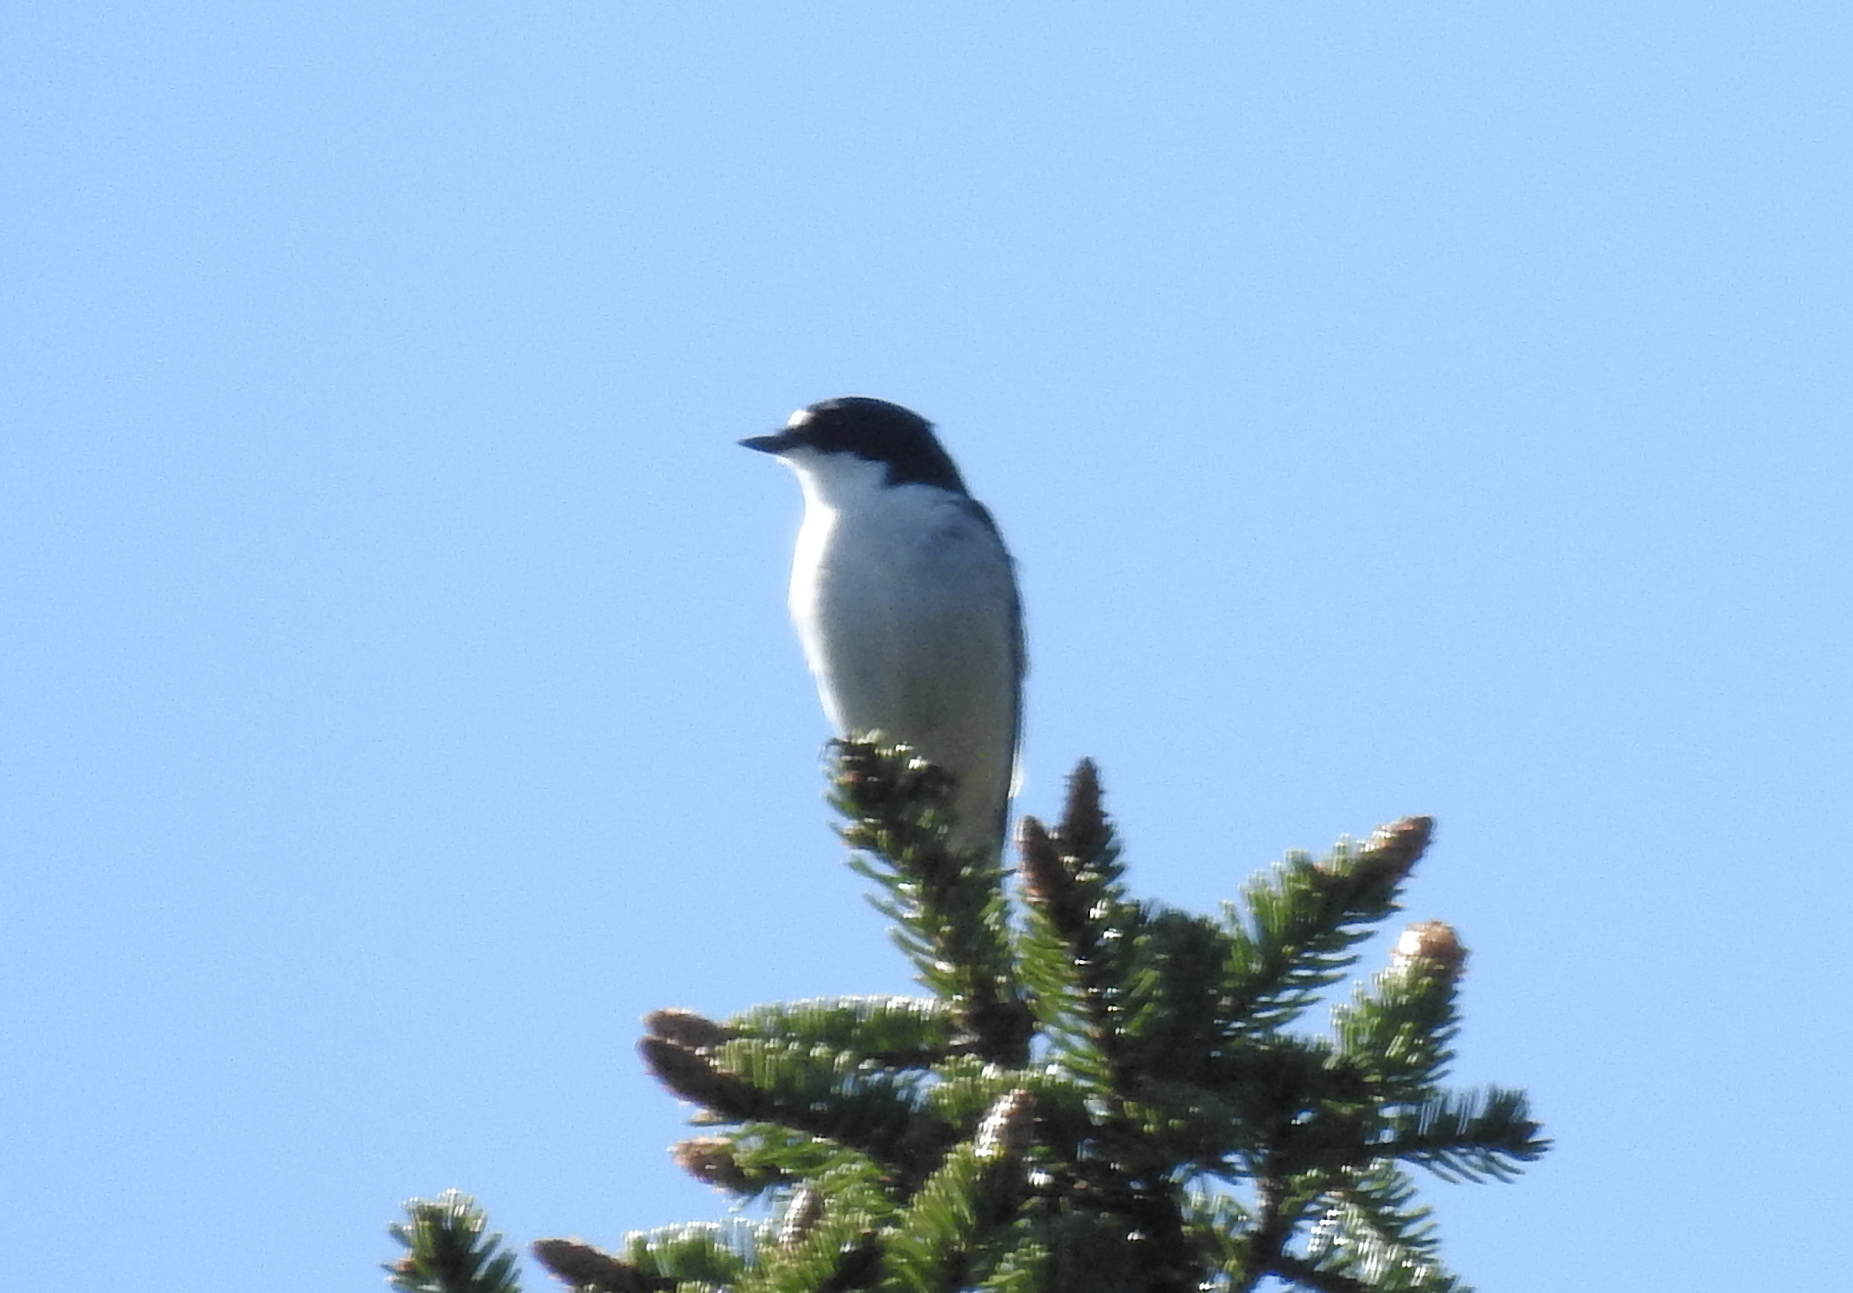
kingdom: Animalia
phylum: Chordata
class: Aves
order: Passeriformes
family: Muscicapidae
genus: Ficedula
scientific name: Ficedula hypoleuca
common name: European pied flycatcher
